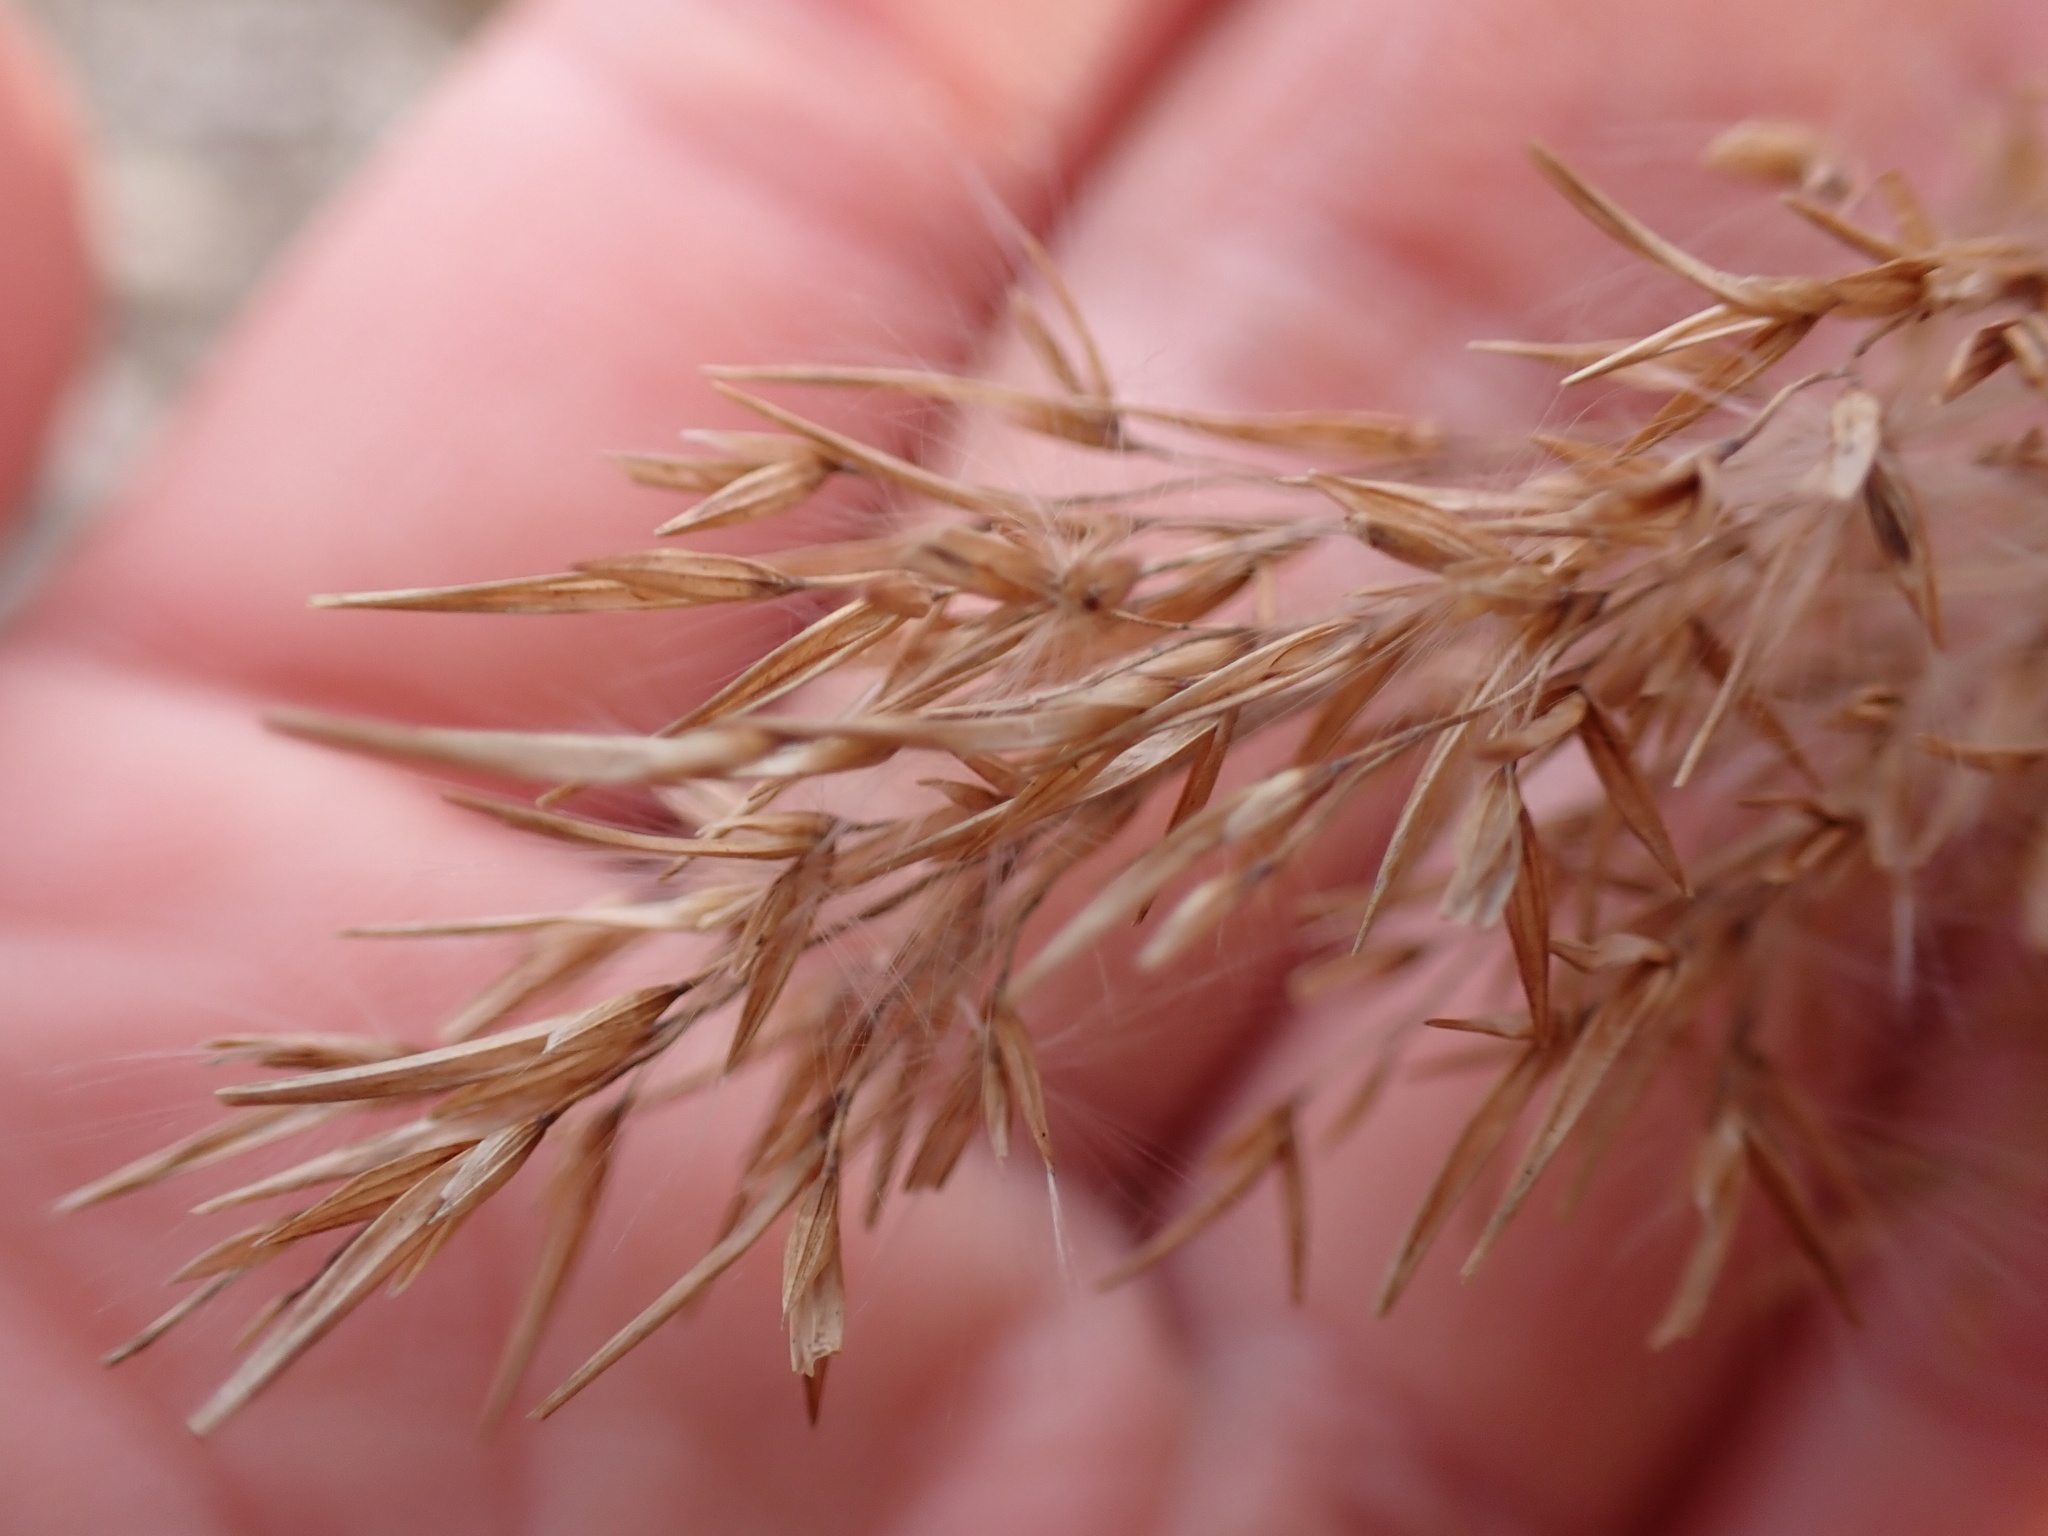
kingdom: Plantae
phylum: Tracheophyta
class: Liliopsida
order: Poales
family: Poaceae
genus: Phragmites
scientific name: Phragmites australis
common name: Common reed
